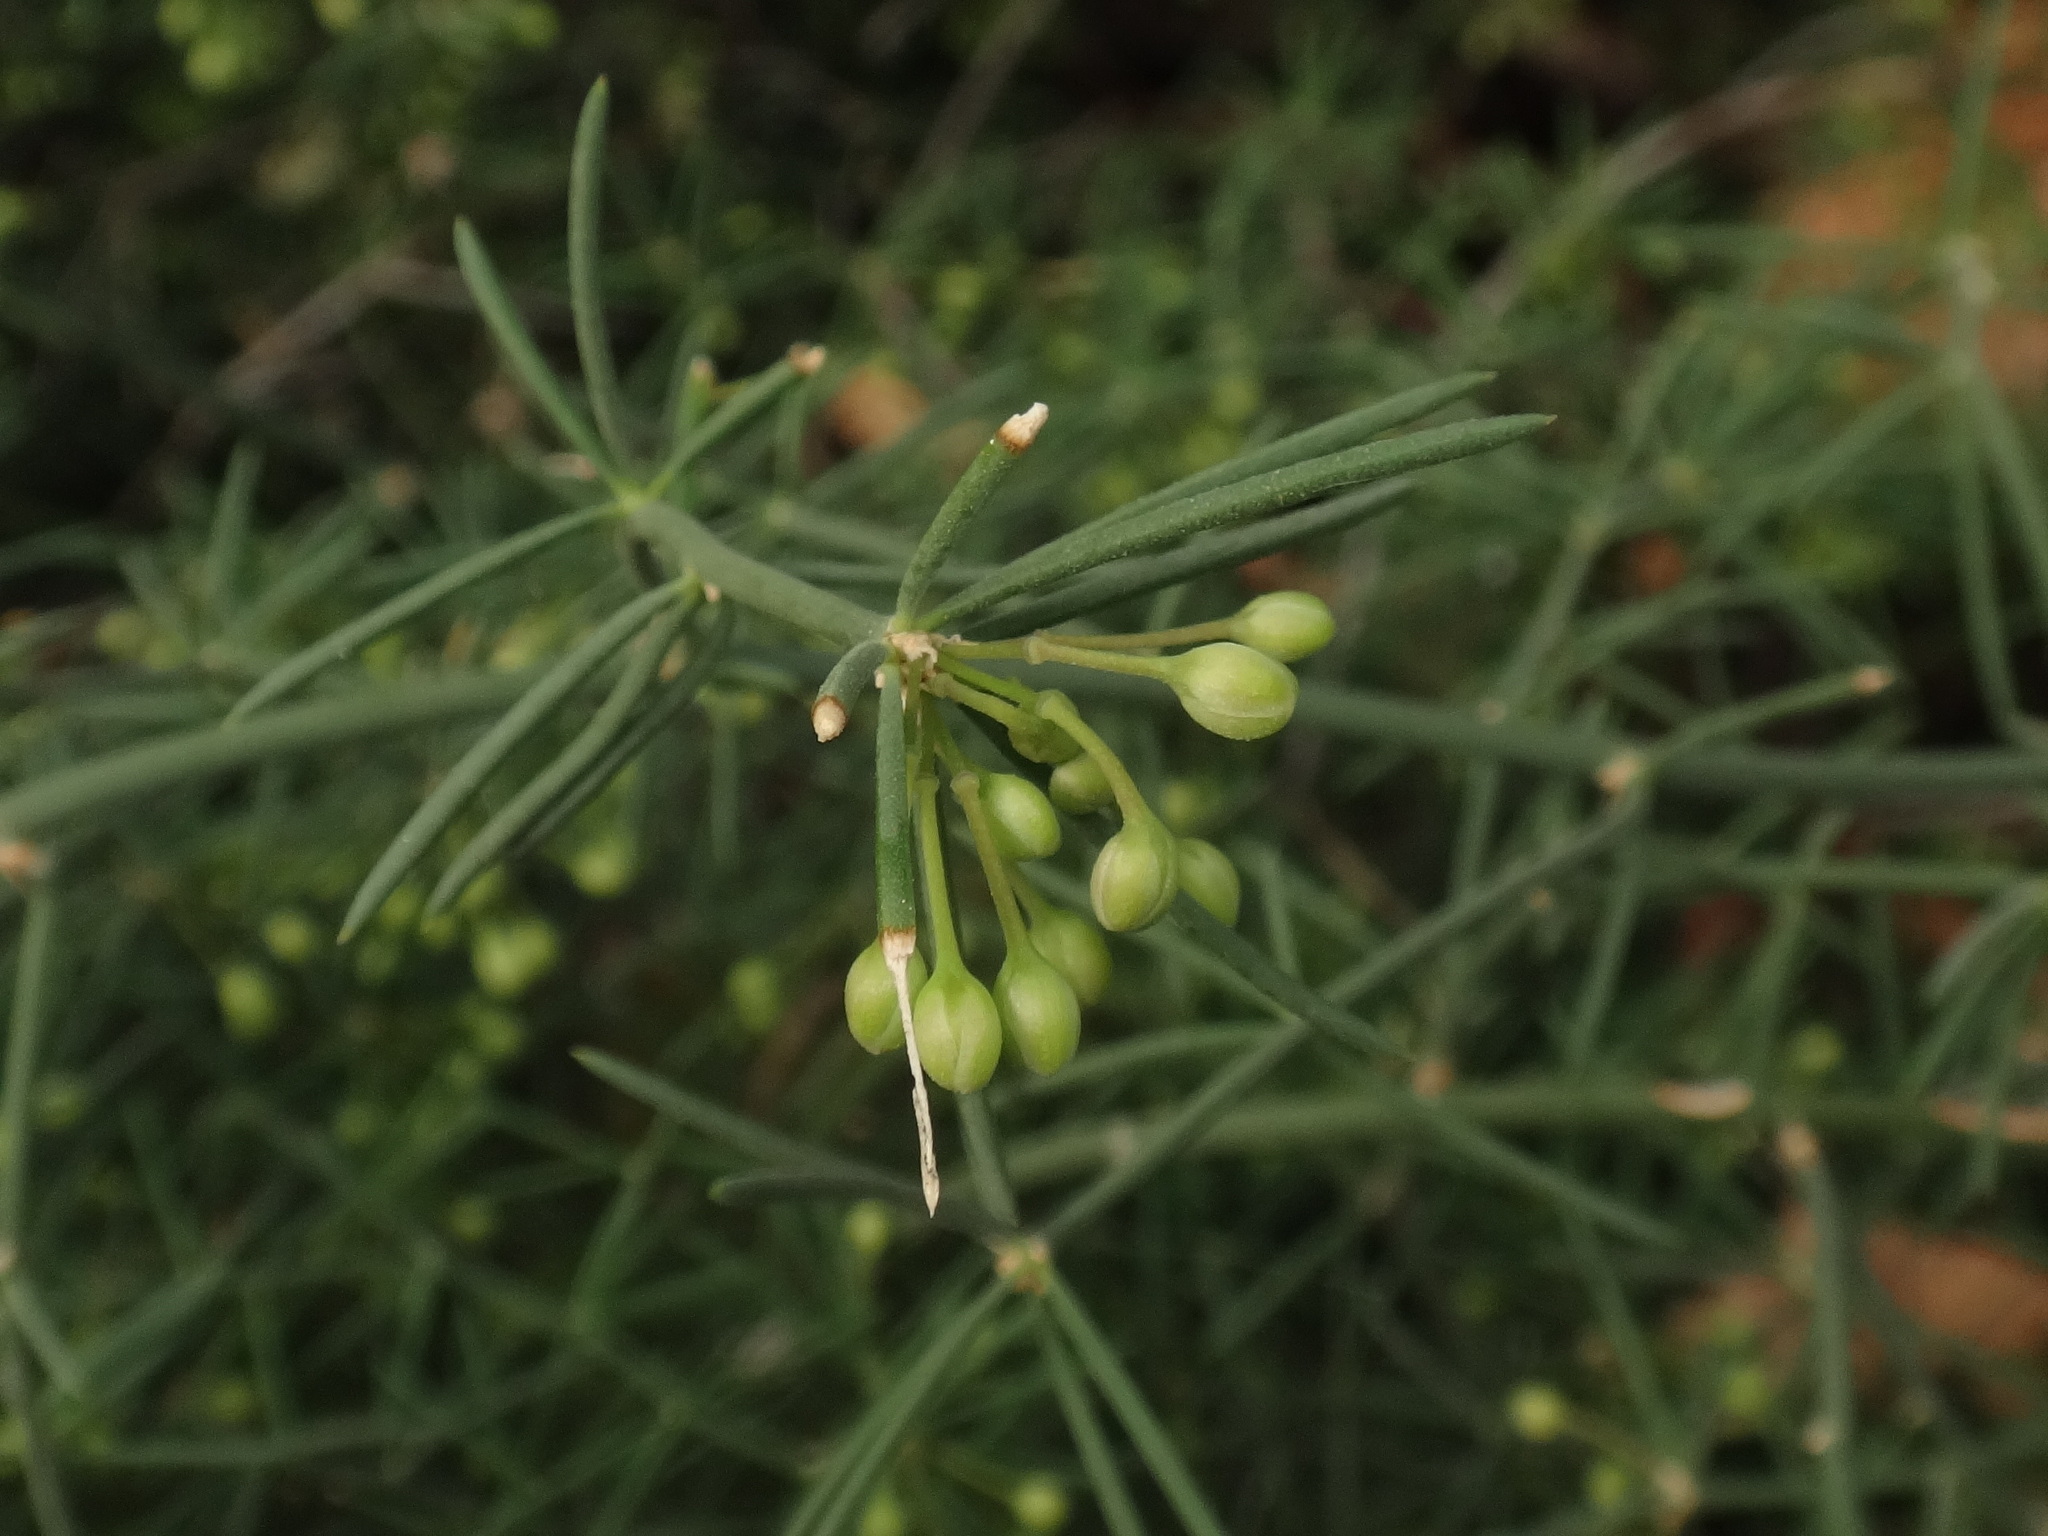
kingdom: Plantae
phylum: Tracheophyta
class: Liliopsida
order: Asparagales
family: Asparagaceae
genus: Asparagus
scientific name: Asparagus umbellatus
